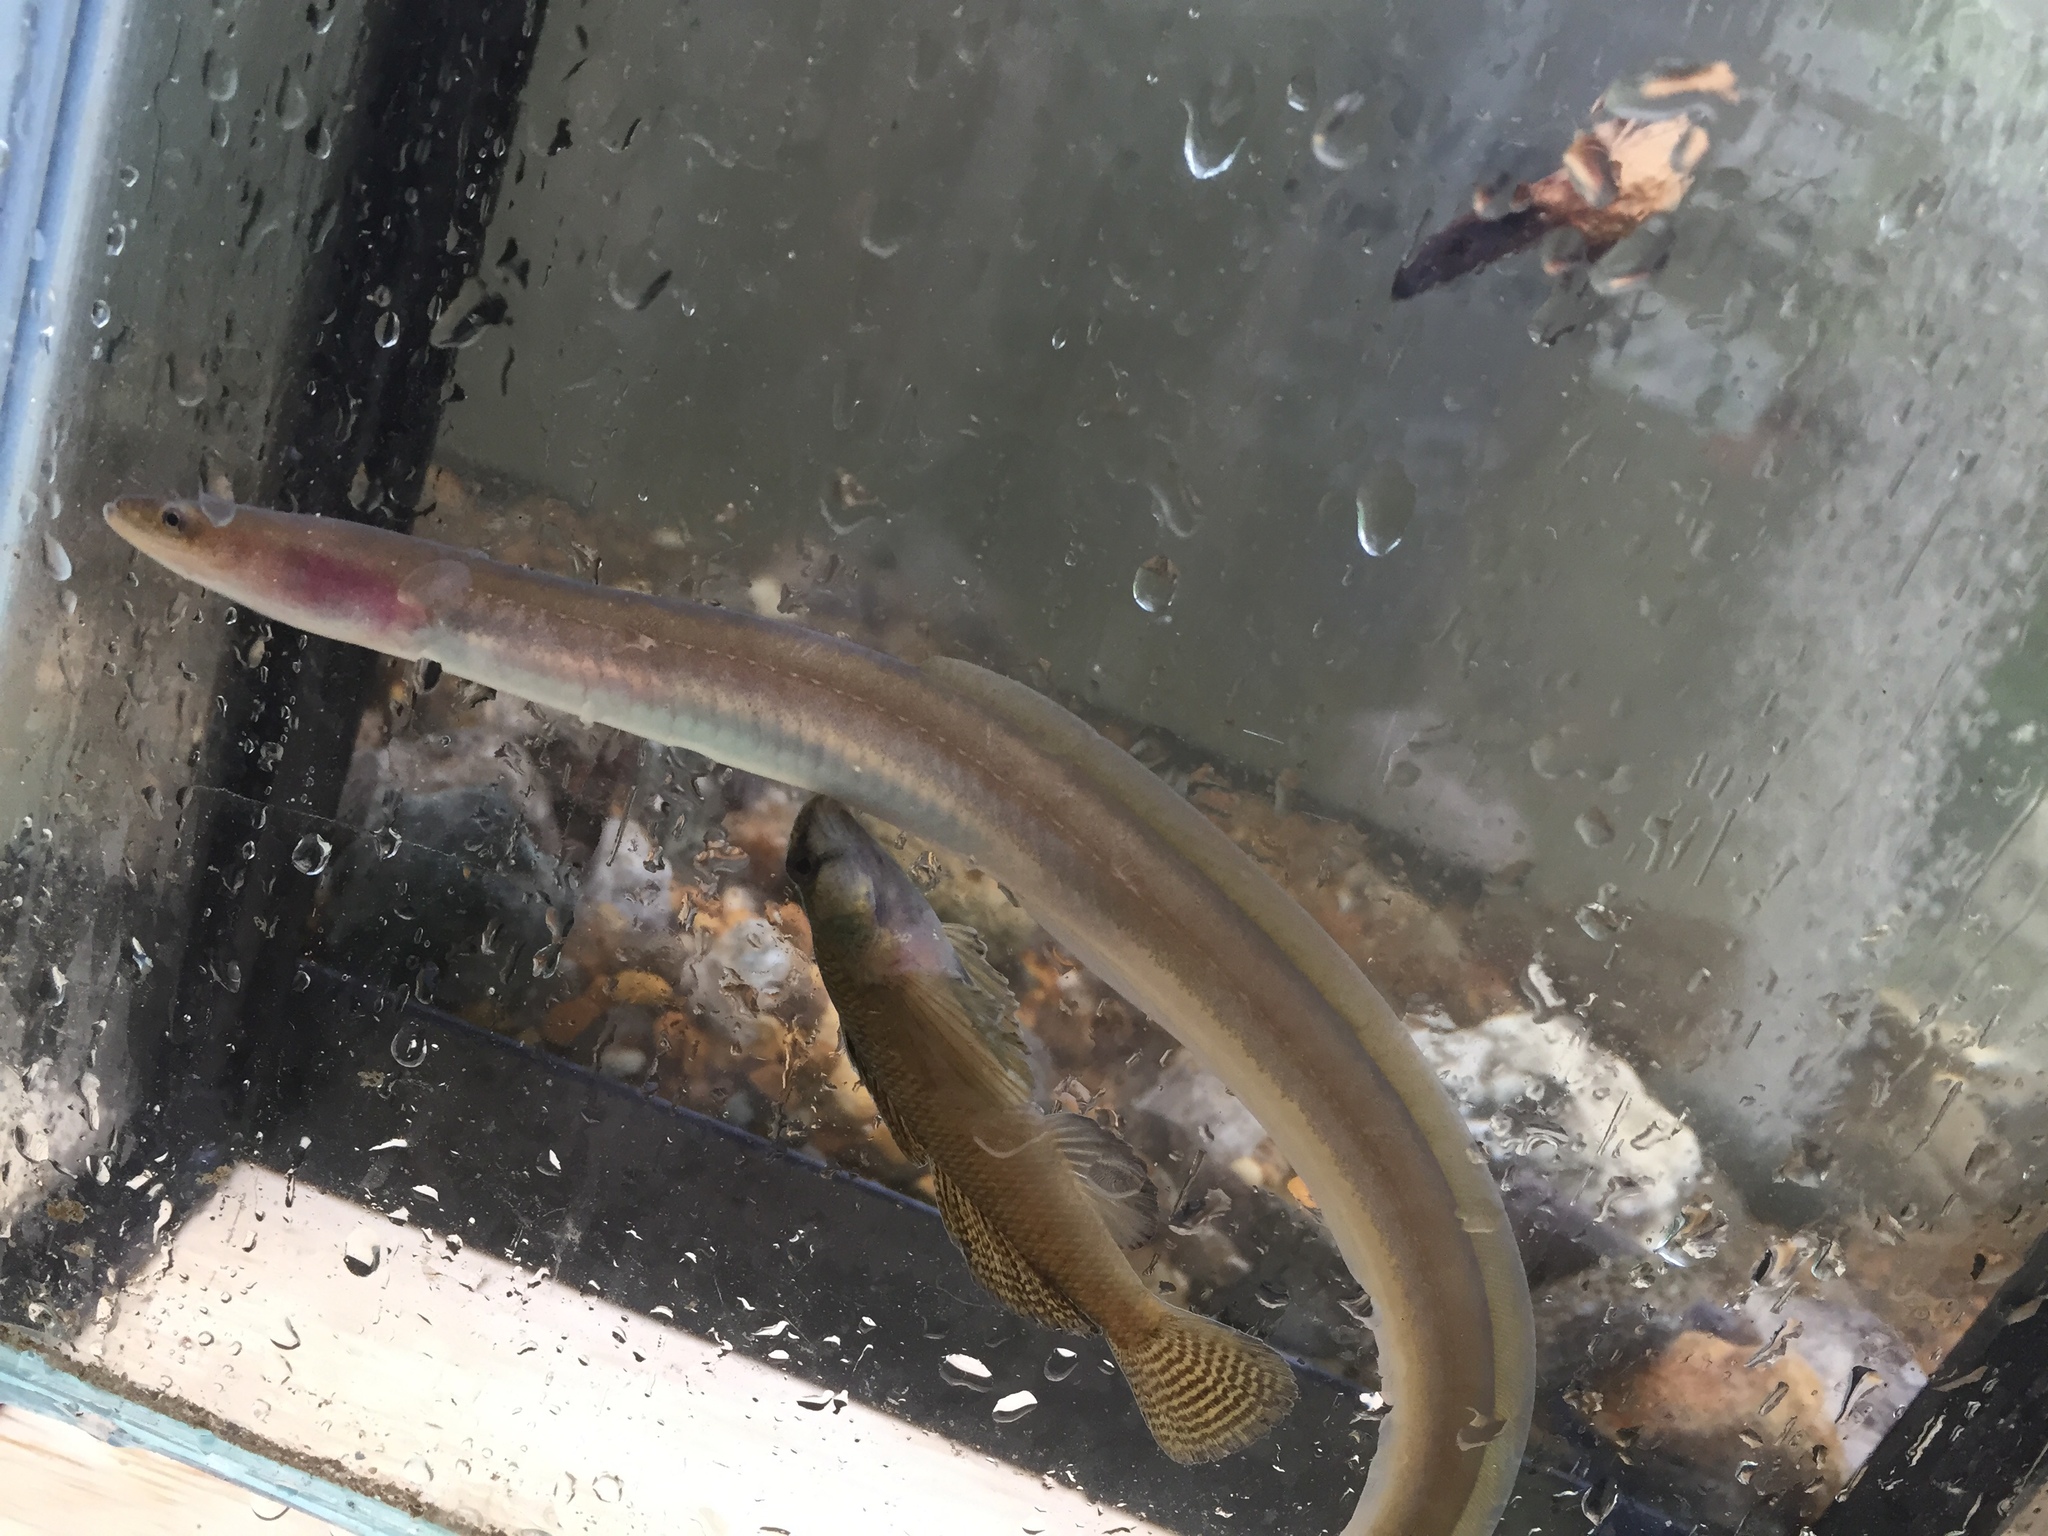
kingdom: Animalia
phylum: Chordata
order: Anguilliformes
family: Anguillidae
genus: Anguilla
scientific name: Anguilla rostrata
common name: American eel
